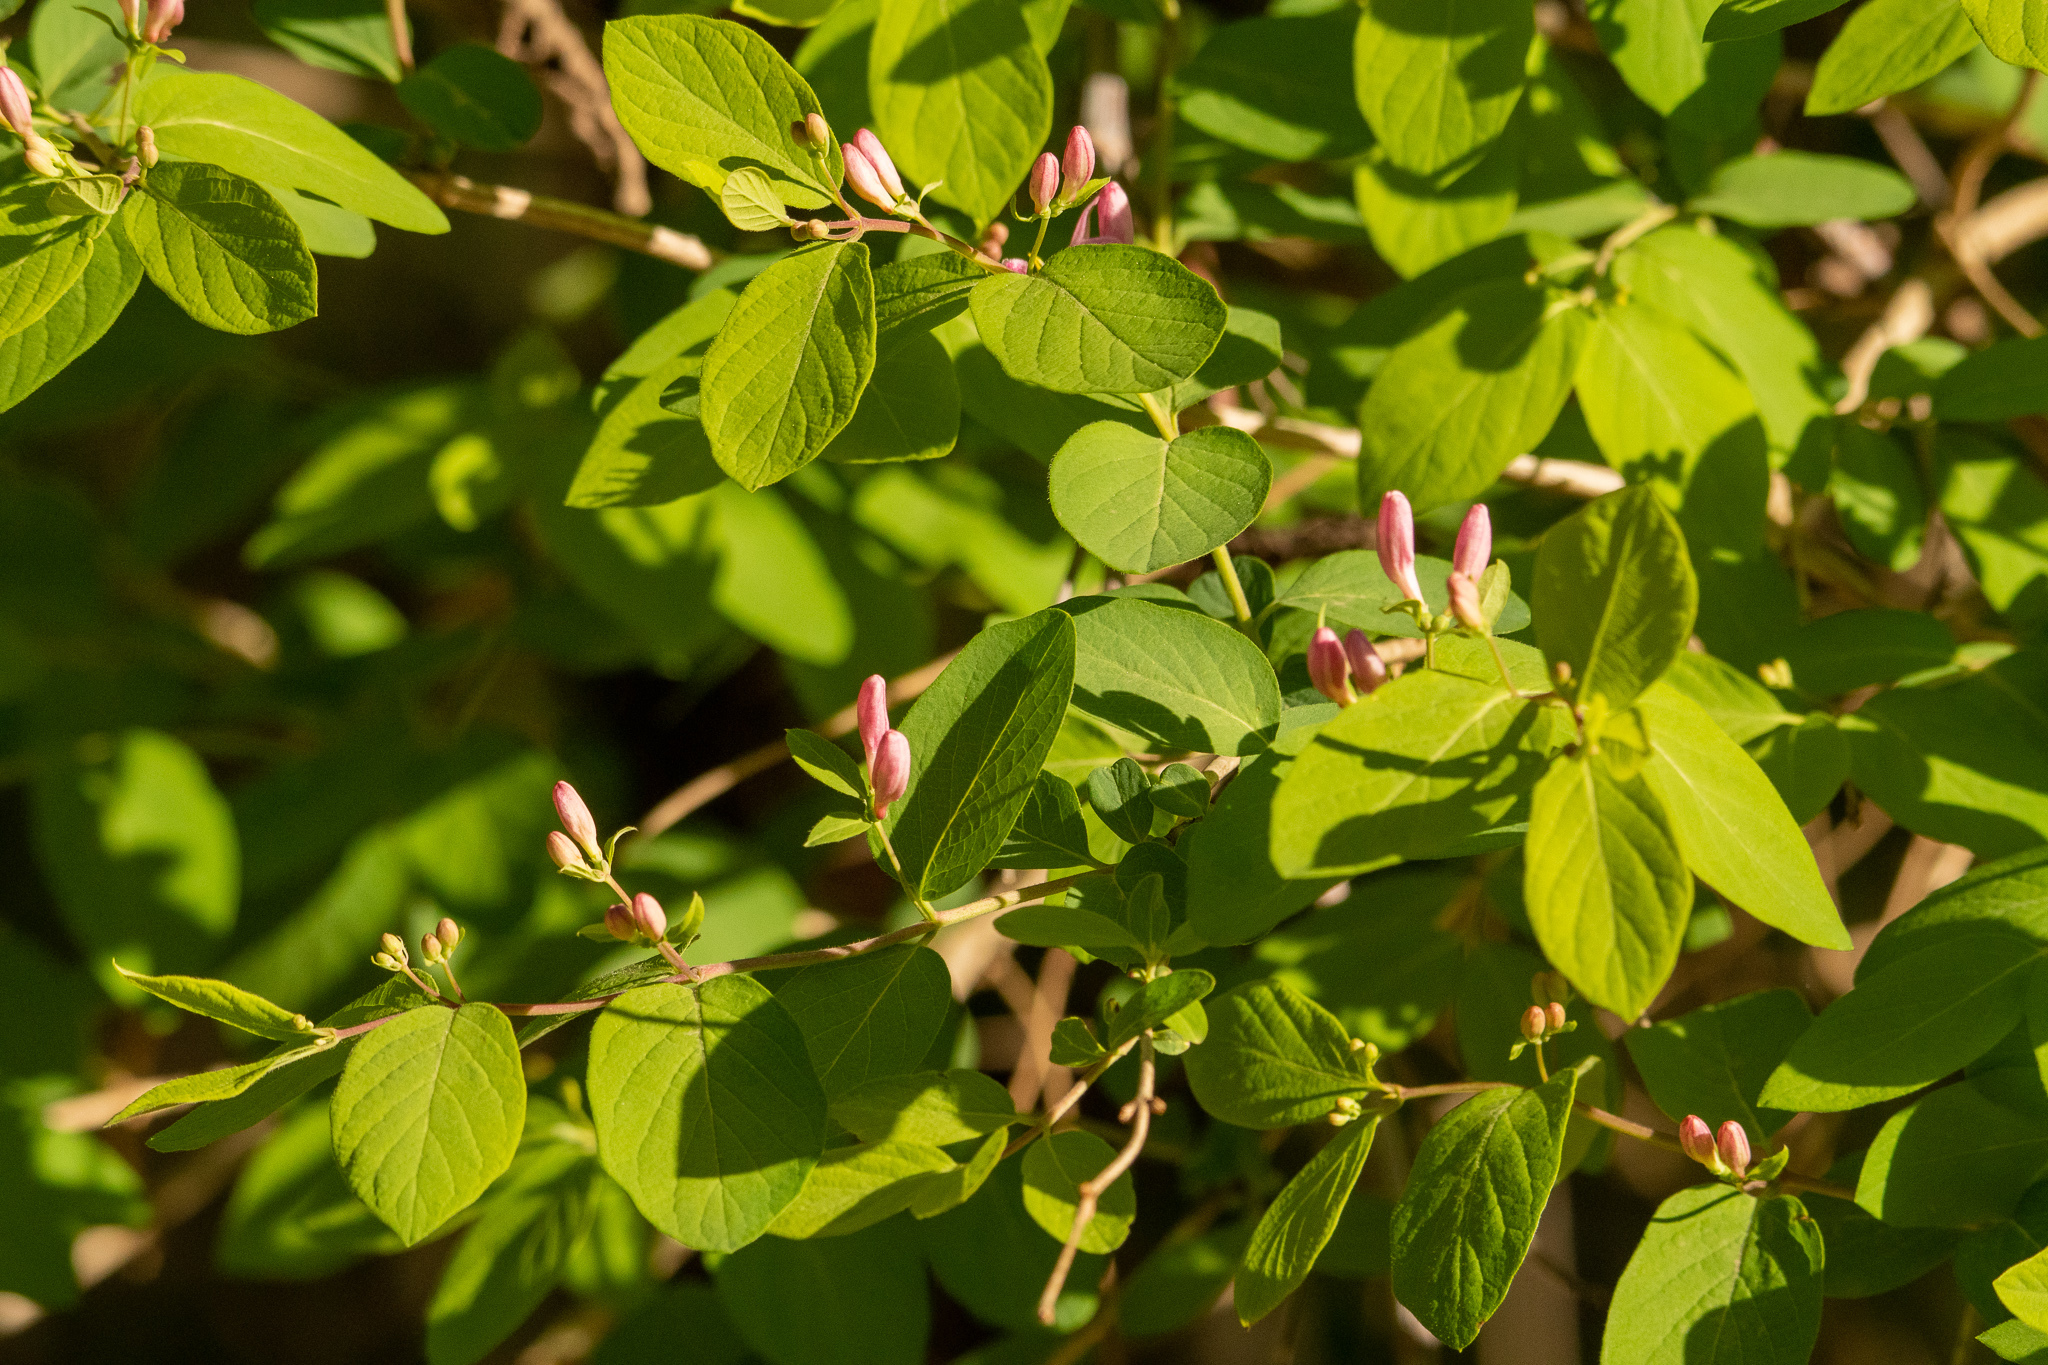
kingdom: Plantae
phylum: Tracheophyta
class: Magnoliopsida
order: Dipsacales
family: Caprifoliaceae
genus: Lonicera
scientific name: Lonicera tatarica
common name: Tatarian honeysuckle
